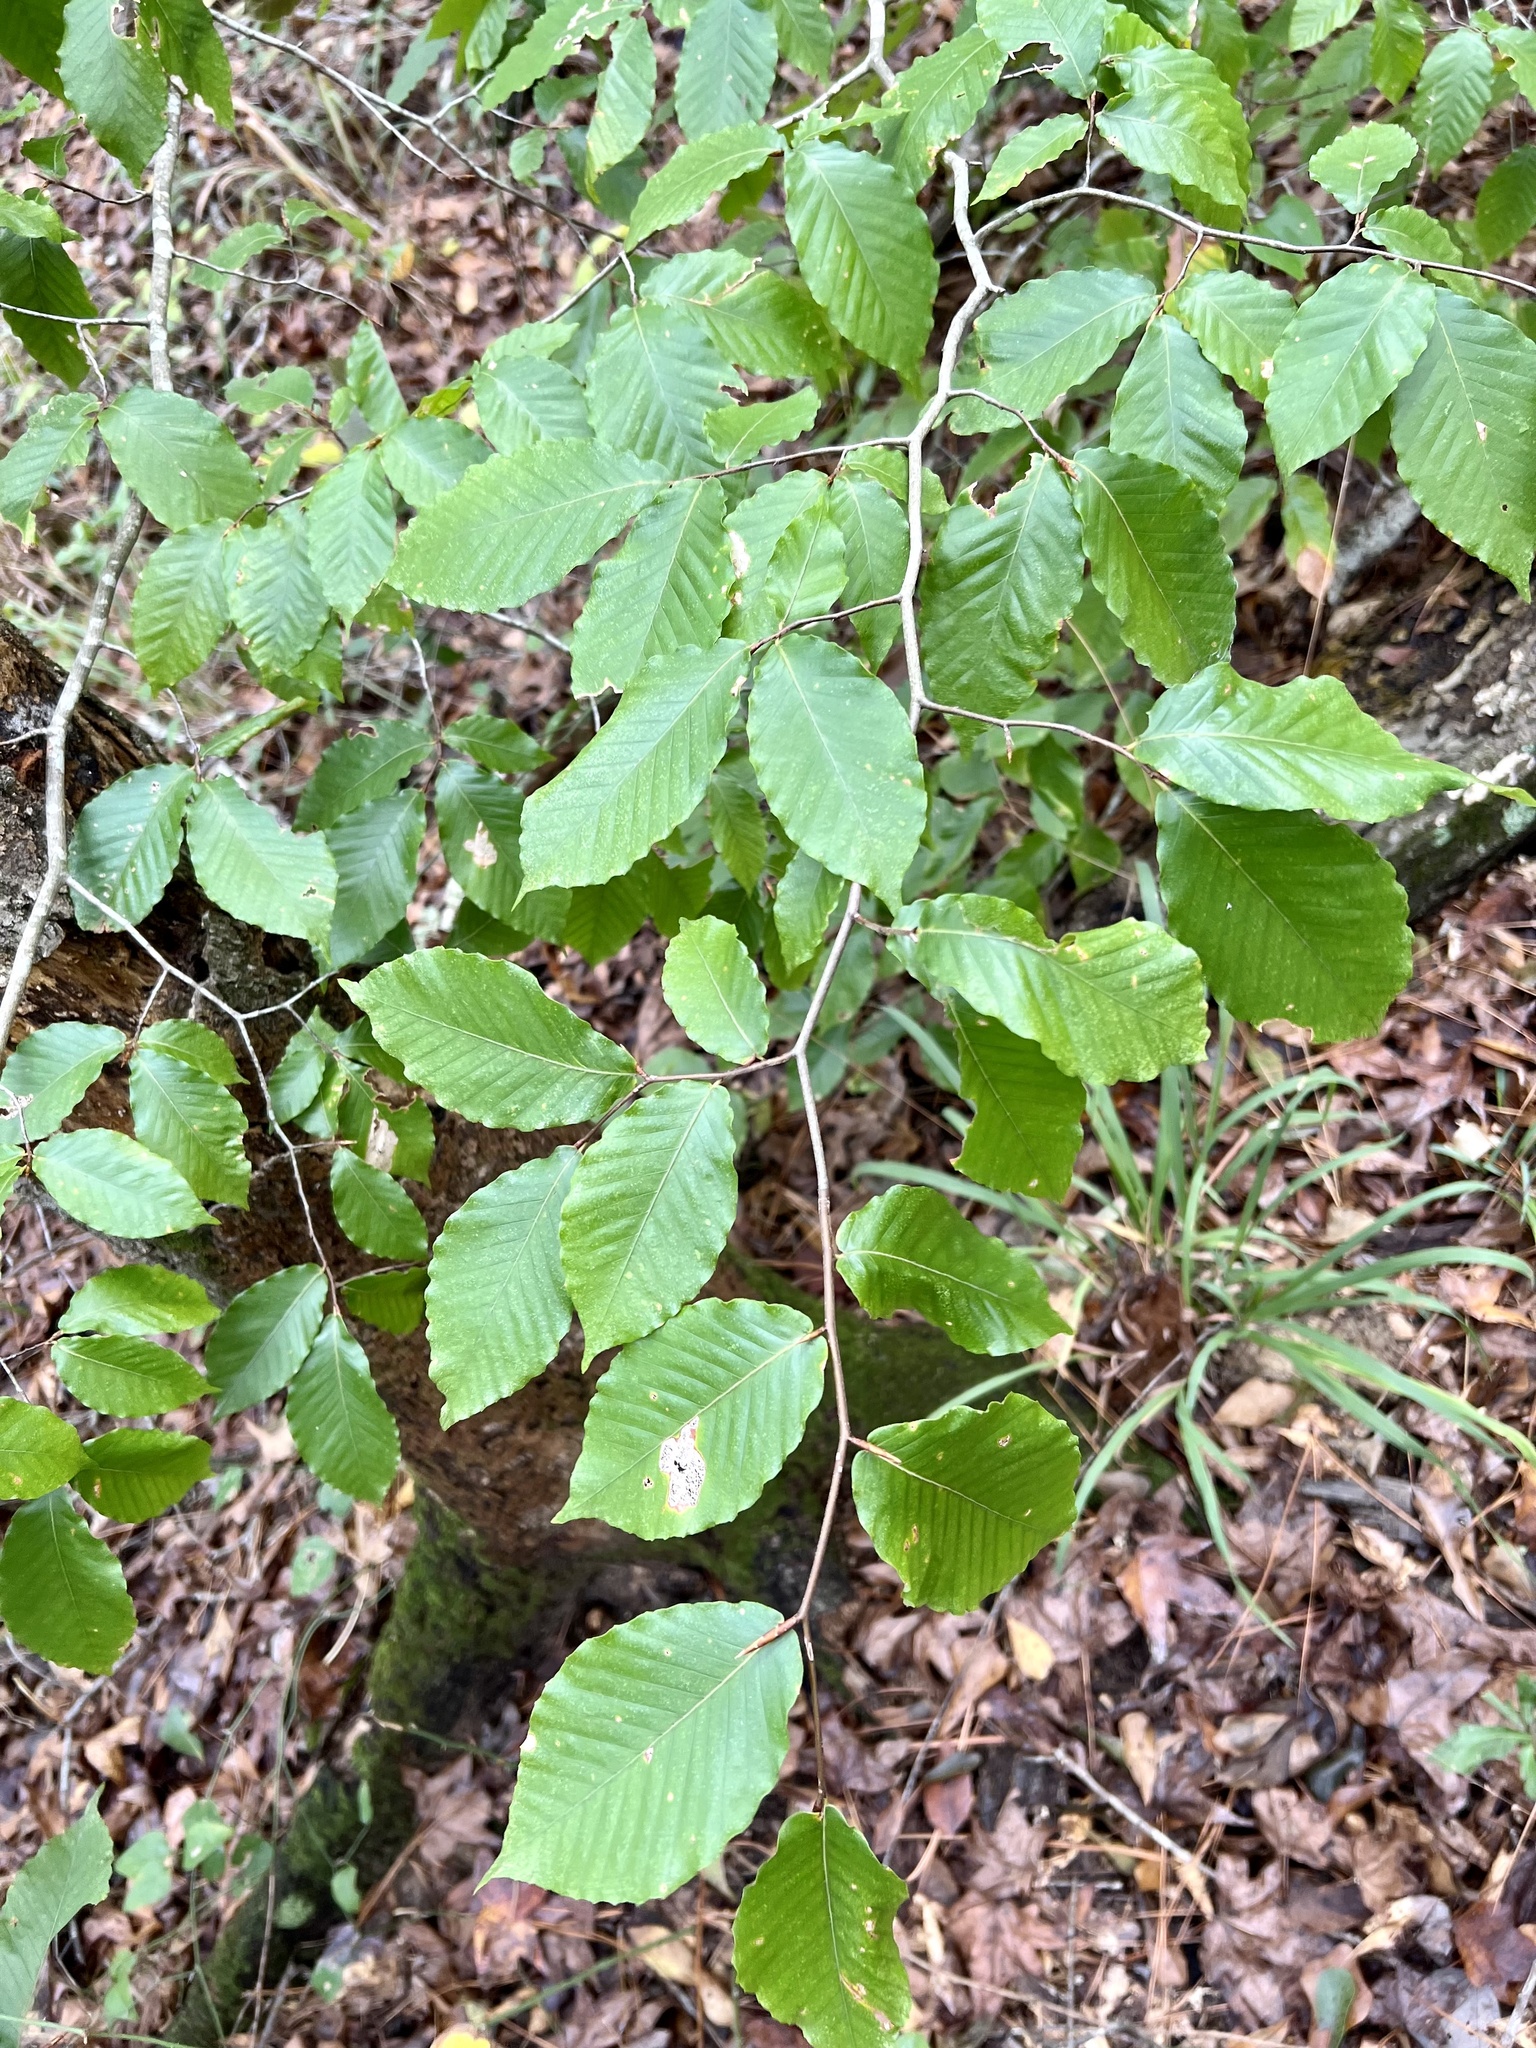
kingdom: Plantae
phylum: Tracheophyta
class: Magnoliopsida
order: Fagales
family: Fagaceae
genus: Fagus
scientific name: Fagus grandifolia
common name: American beech
